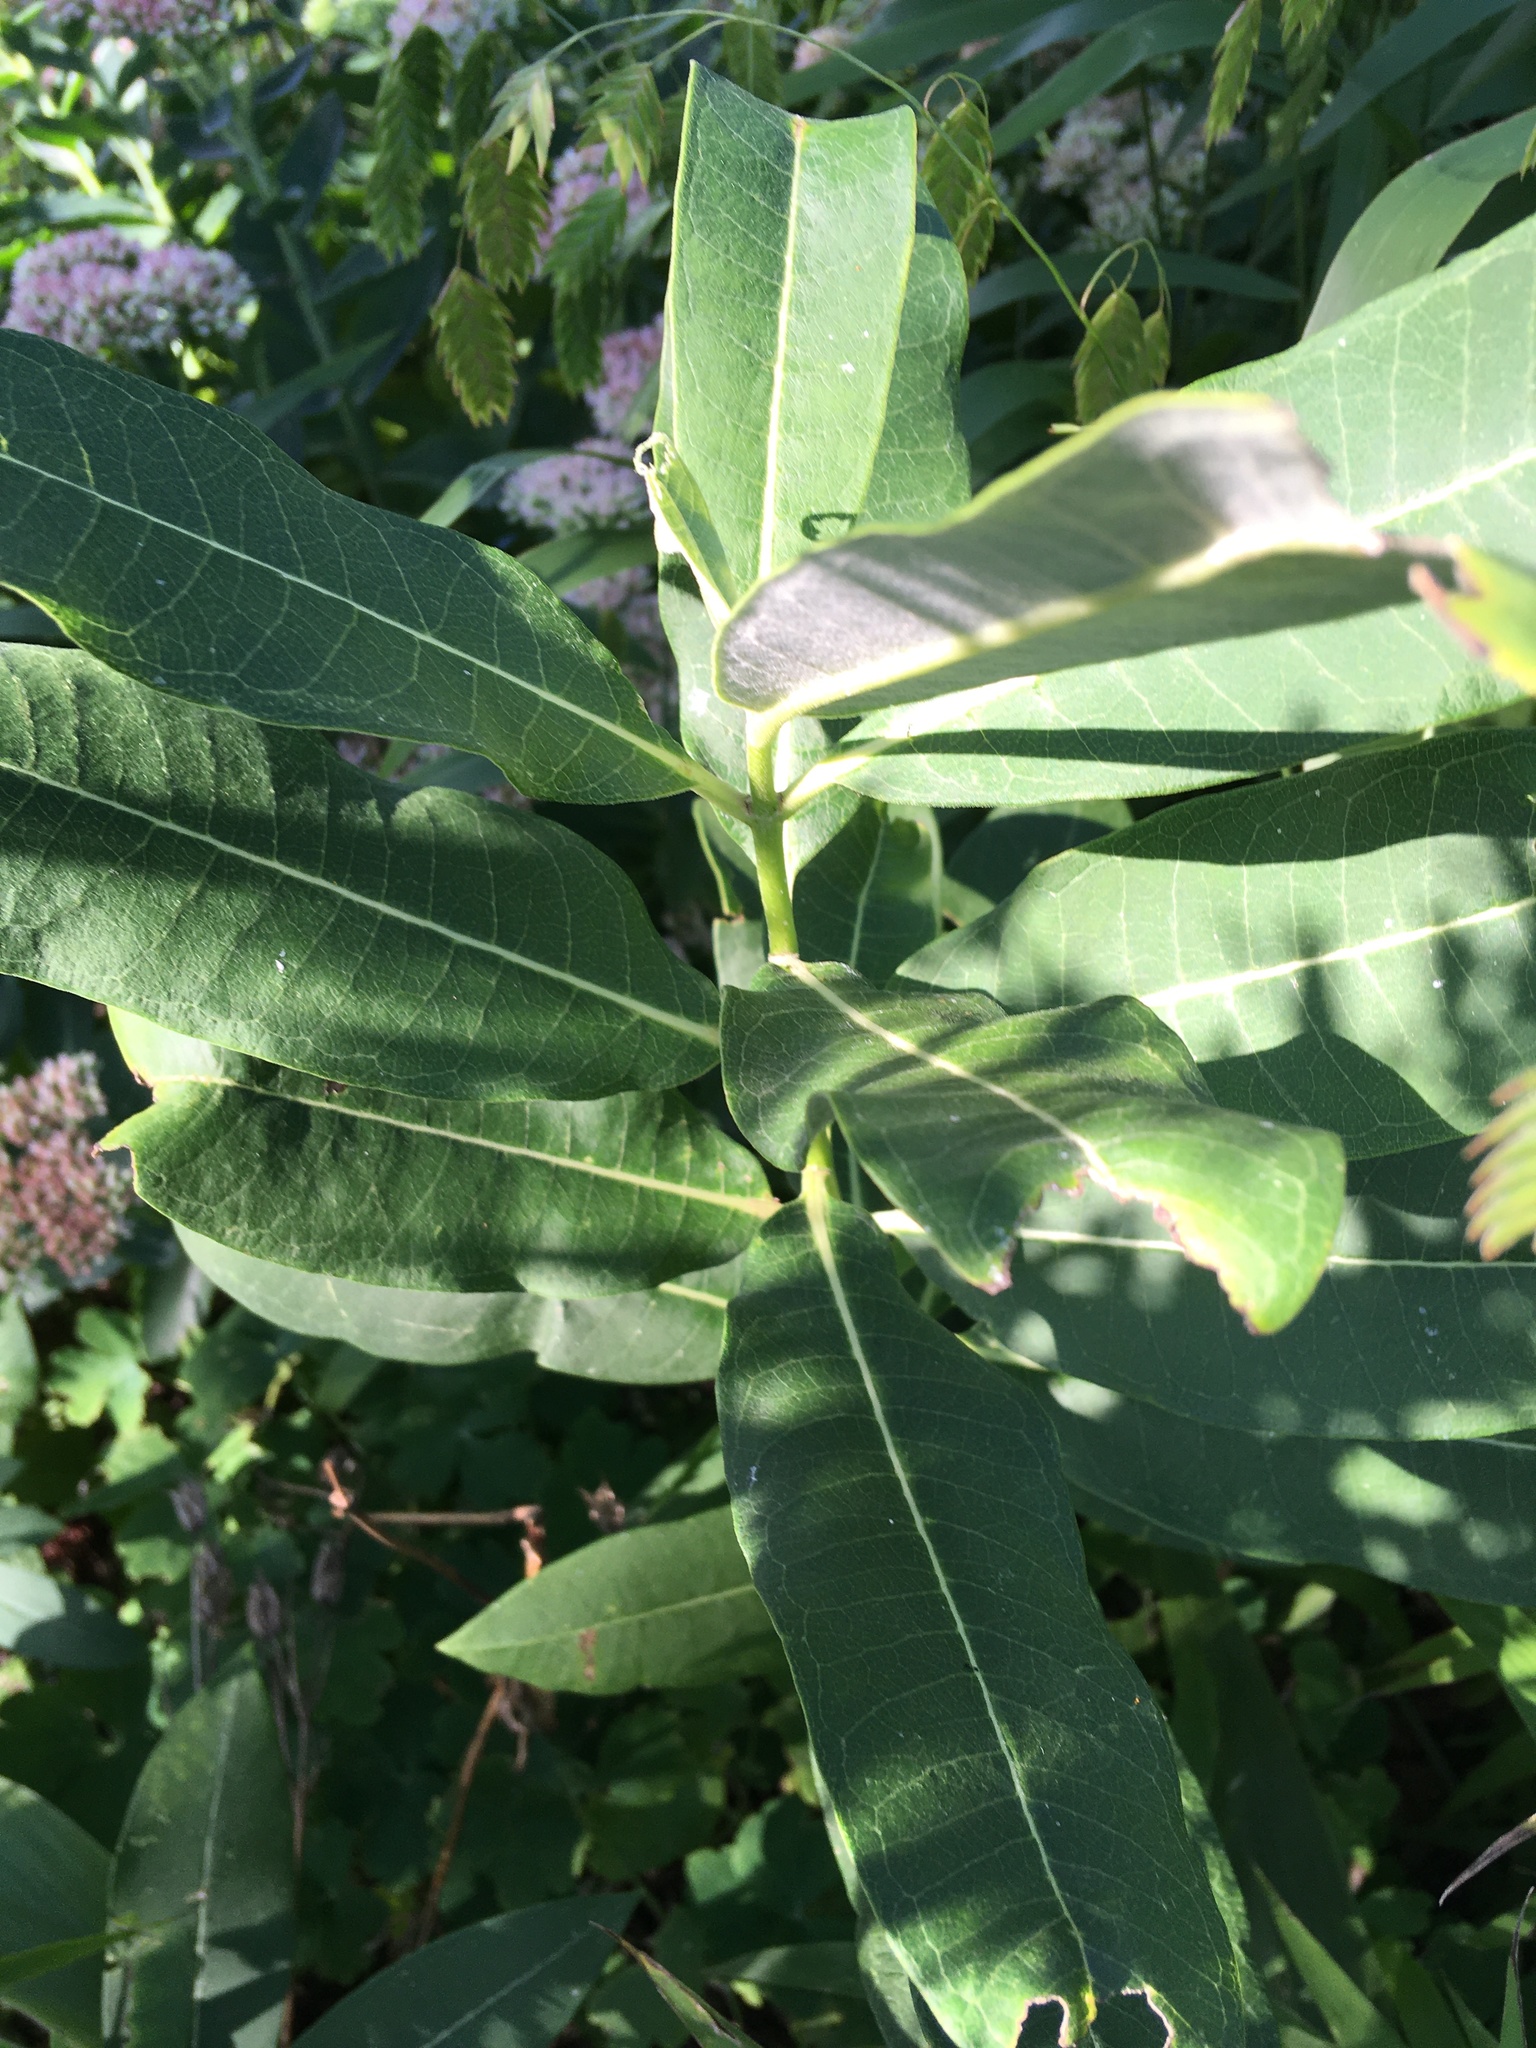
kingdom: Plantae
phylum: Tracheophyta
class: Magnoliopsida
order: Gentianales
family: Apocynaceae
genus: Asclepias
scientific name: Asclepias syriaca
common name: Common milkweed
